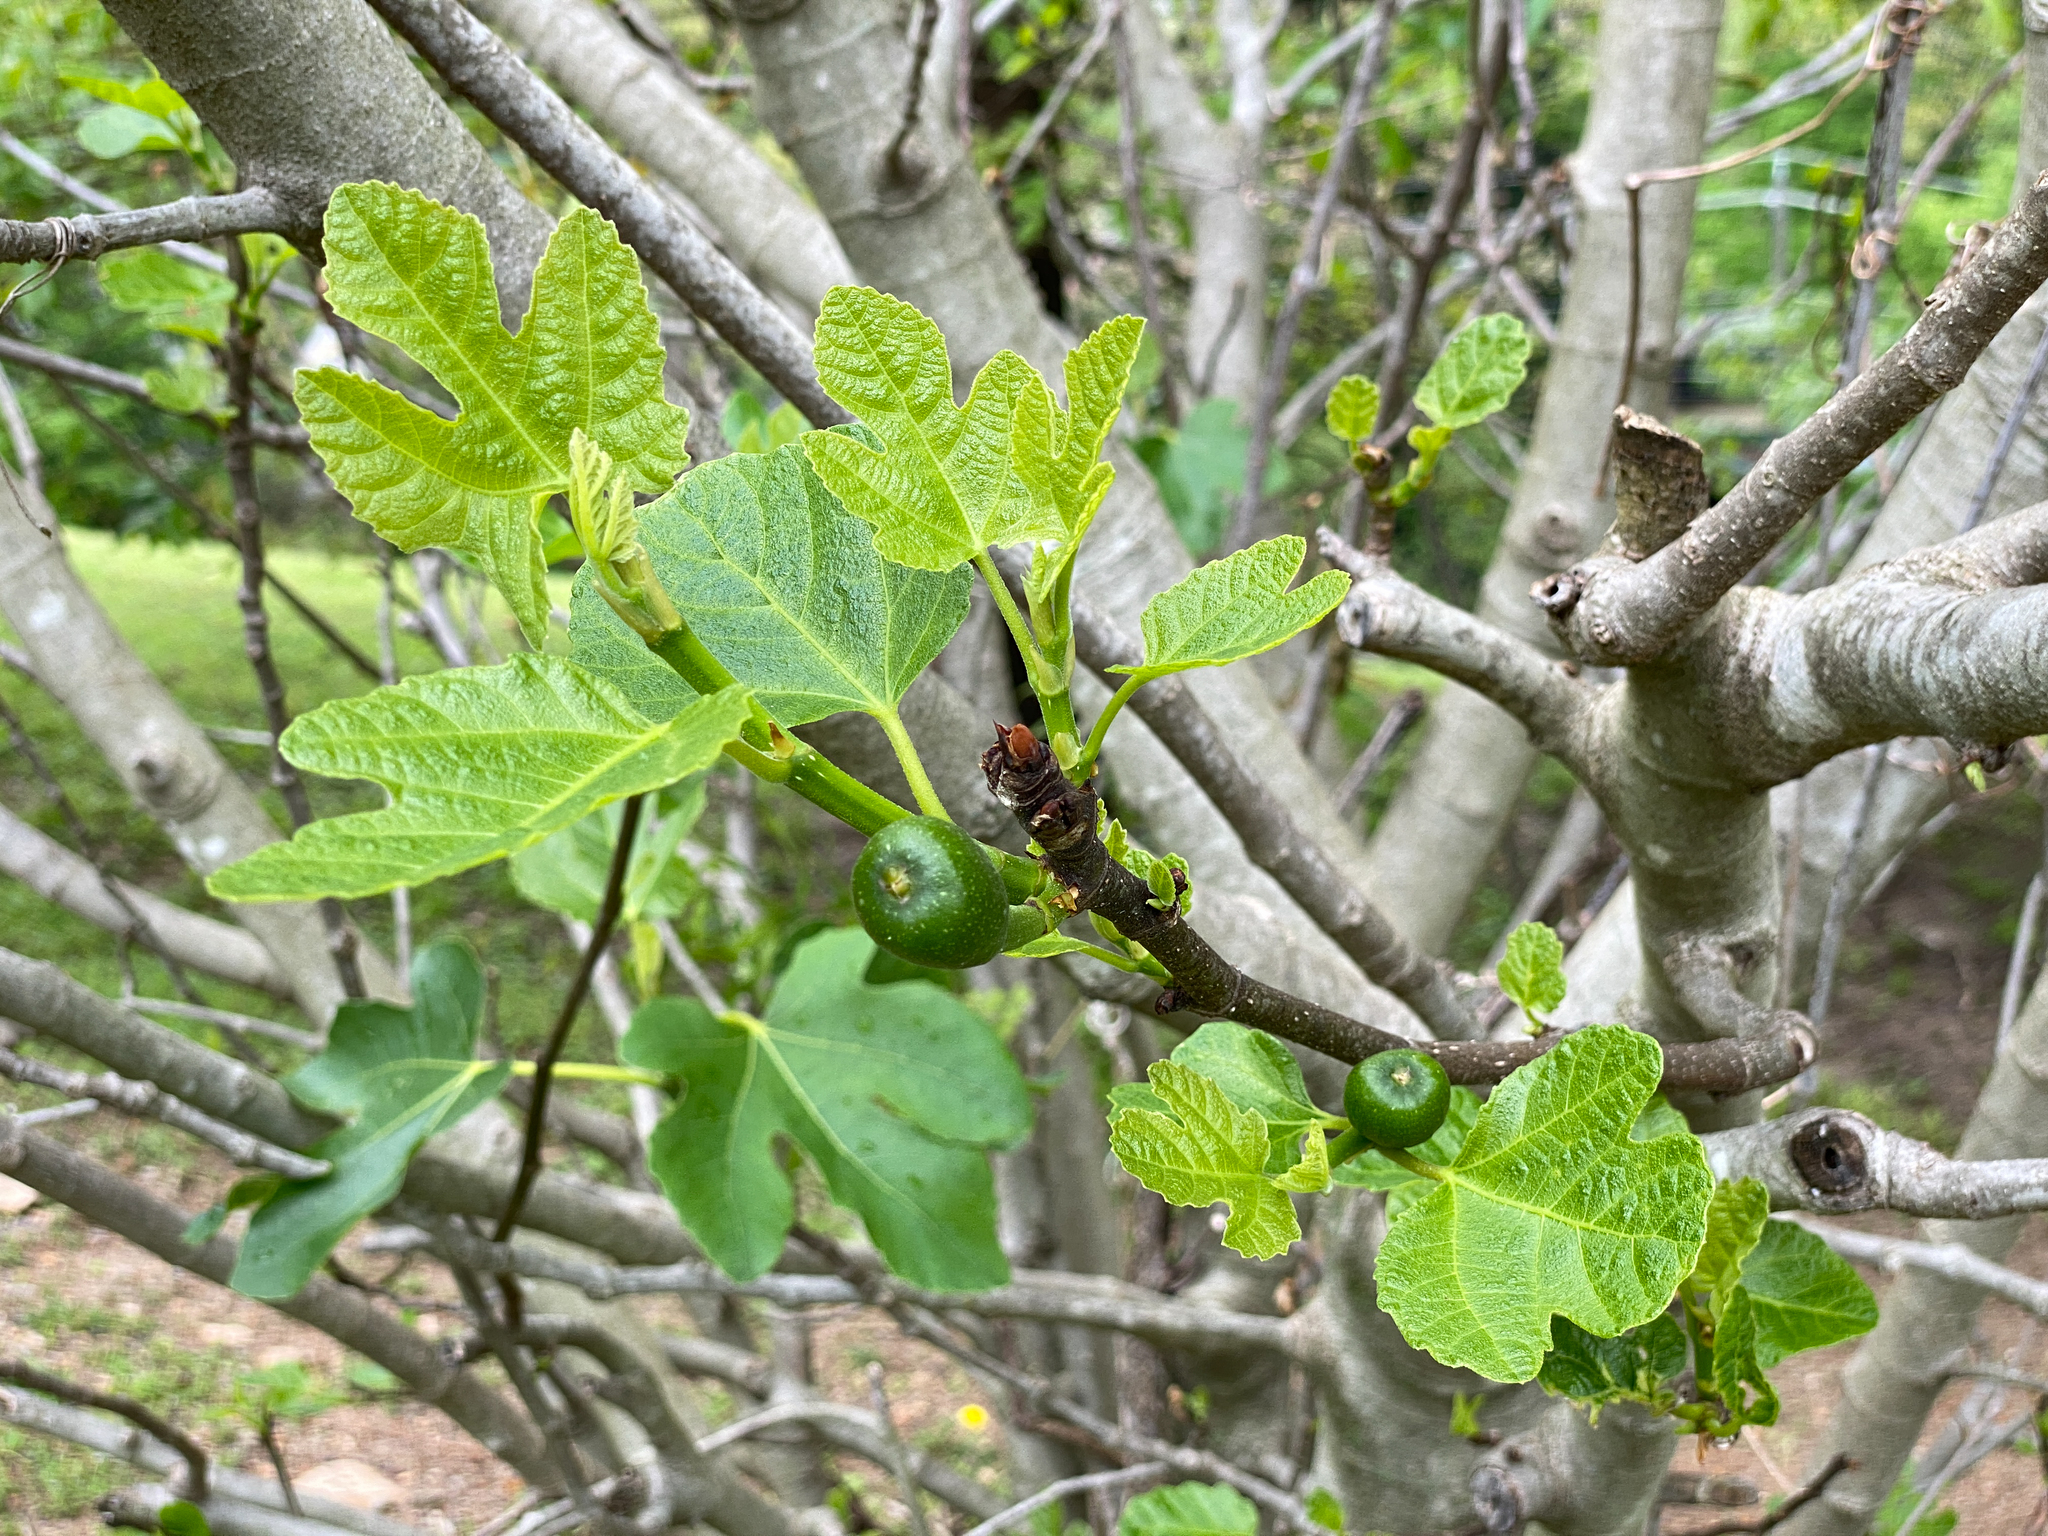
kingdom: Plantae
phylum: Tracheophyta
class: Magnoliopsida
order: Rosales
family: Moraceae
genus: Ficus
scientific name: Ficus carica
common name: Fig
